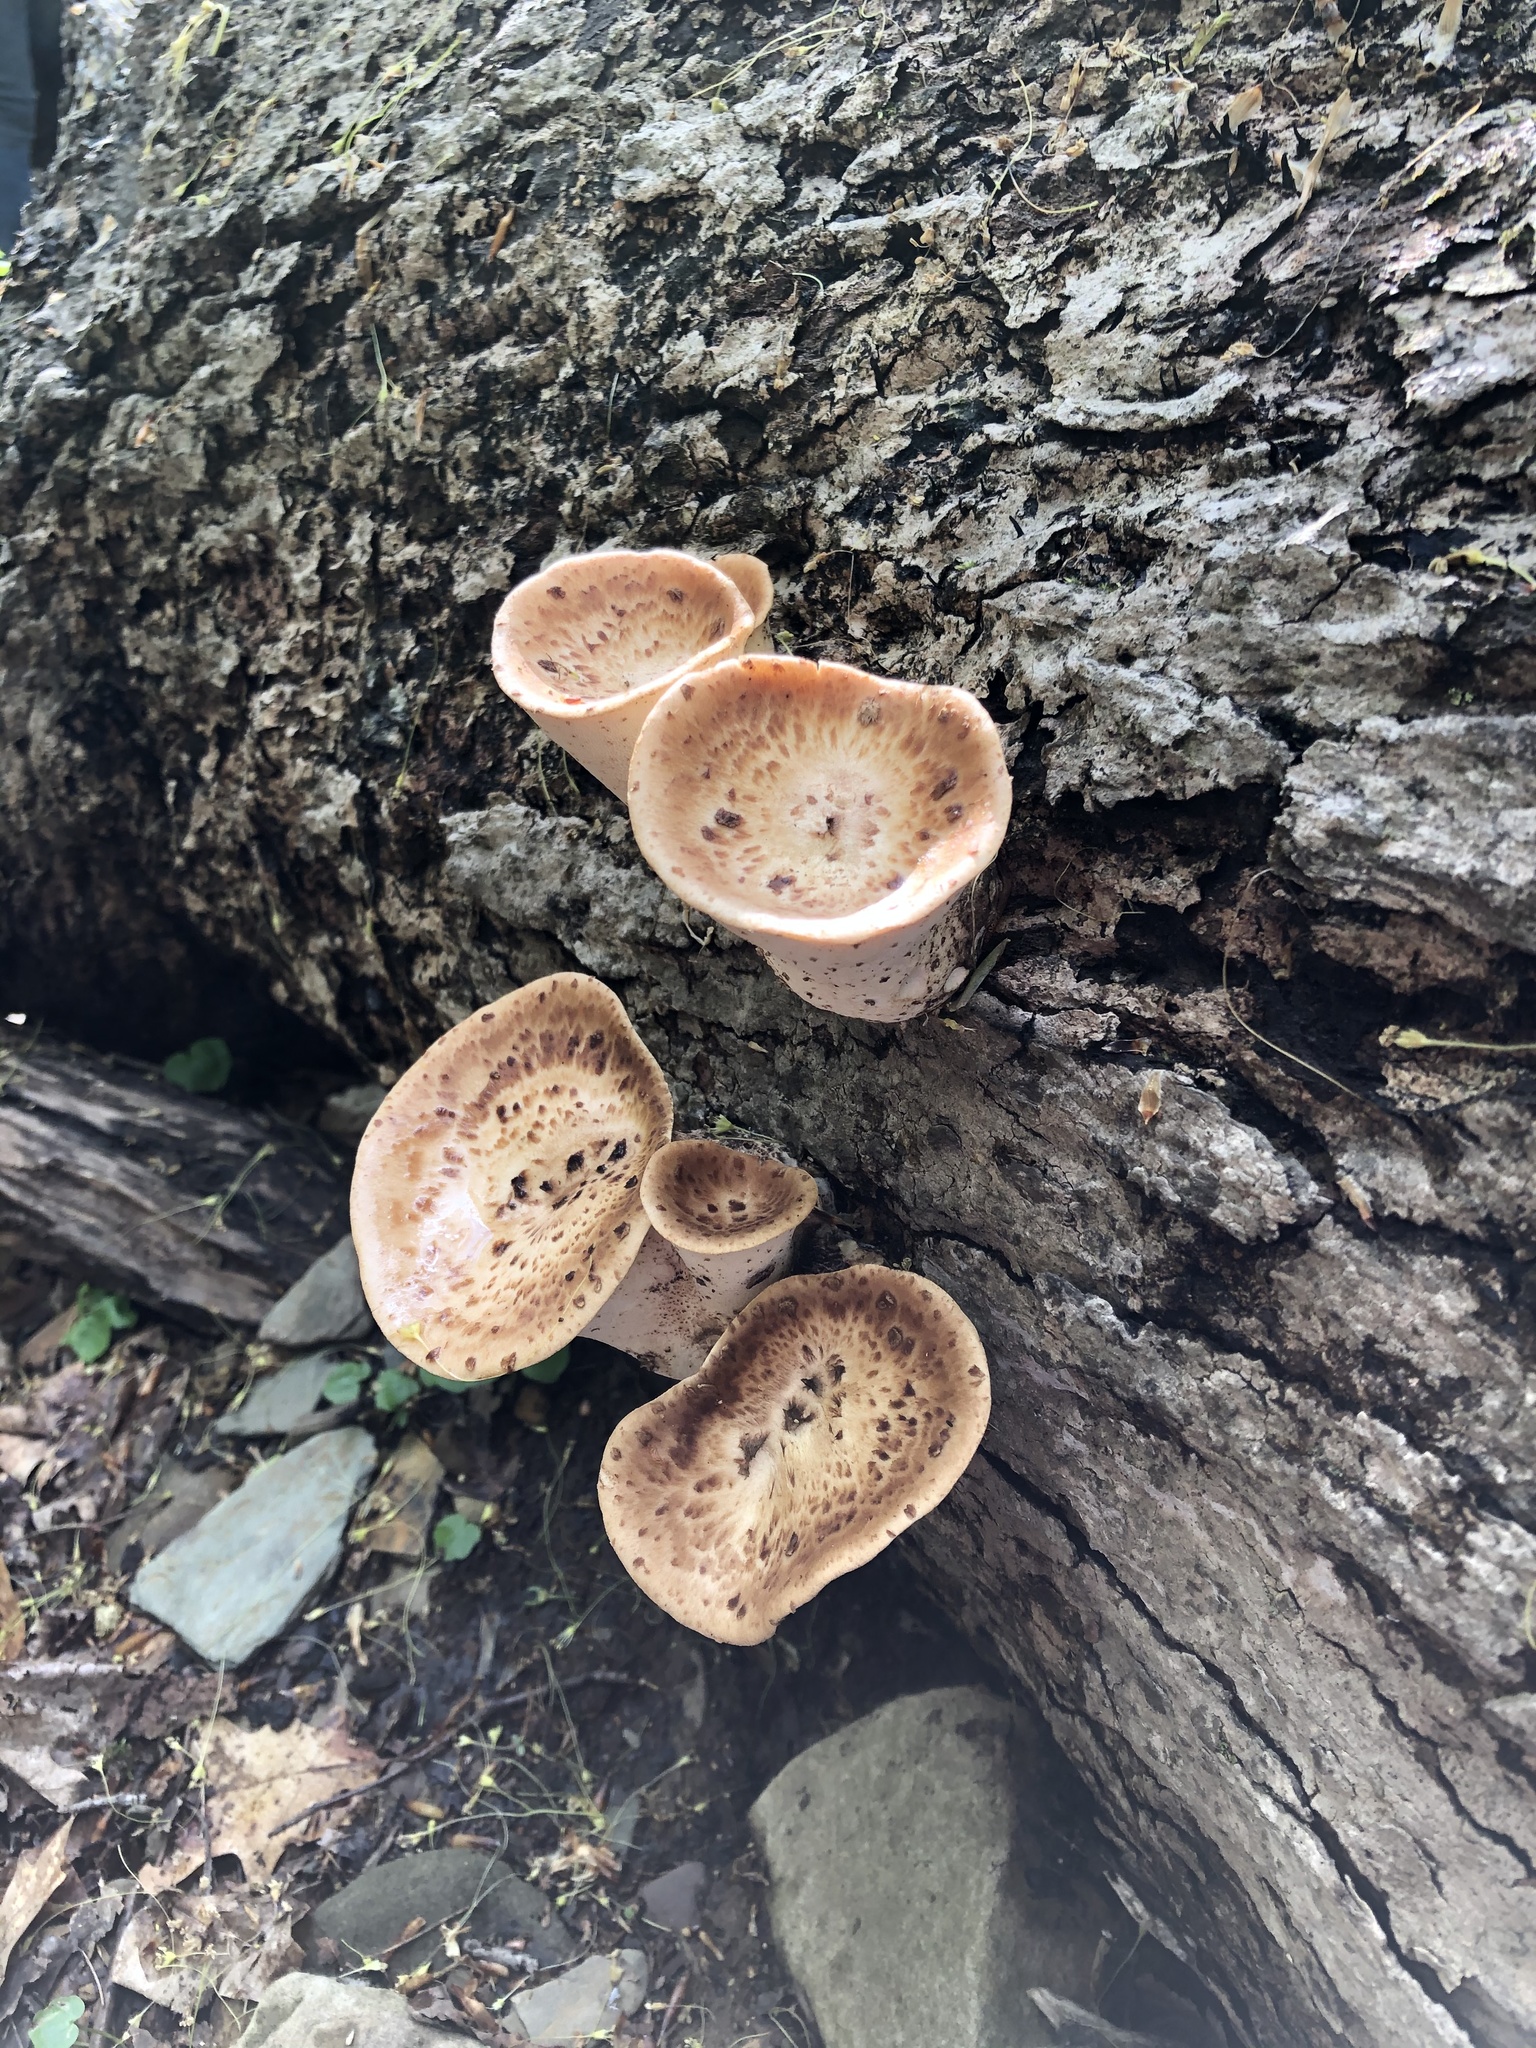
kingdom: Fungi
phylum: Basidiomycota
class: Agaricomycetes
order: Polyporales
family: Polyporaceae
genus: Cerioporus
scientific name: Cerioporus squamosus
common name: Dryad's saddle
